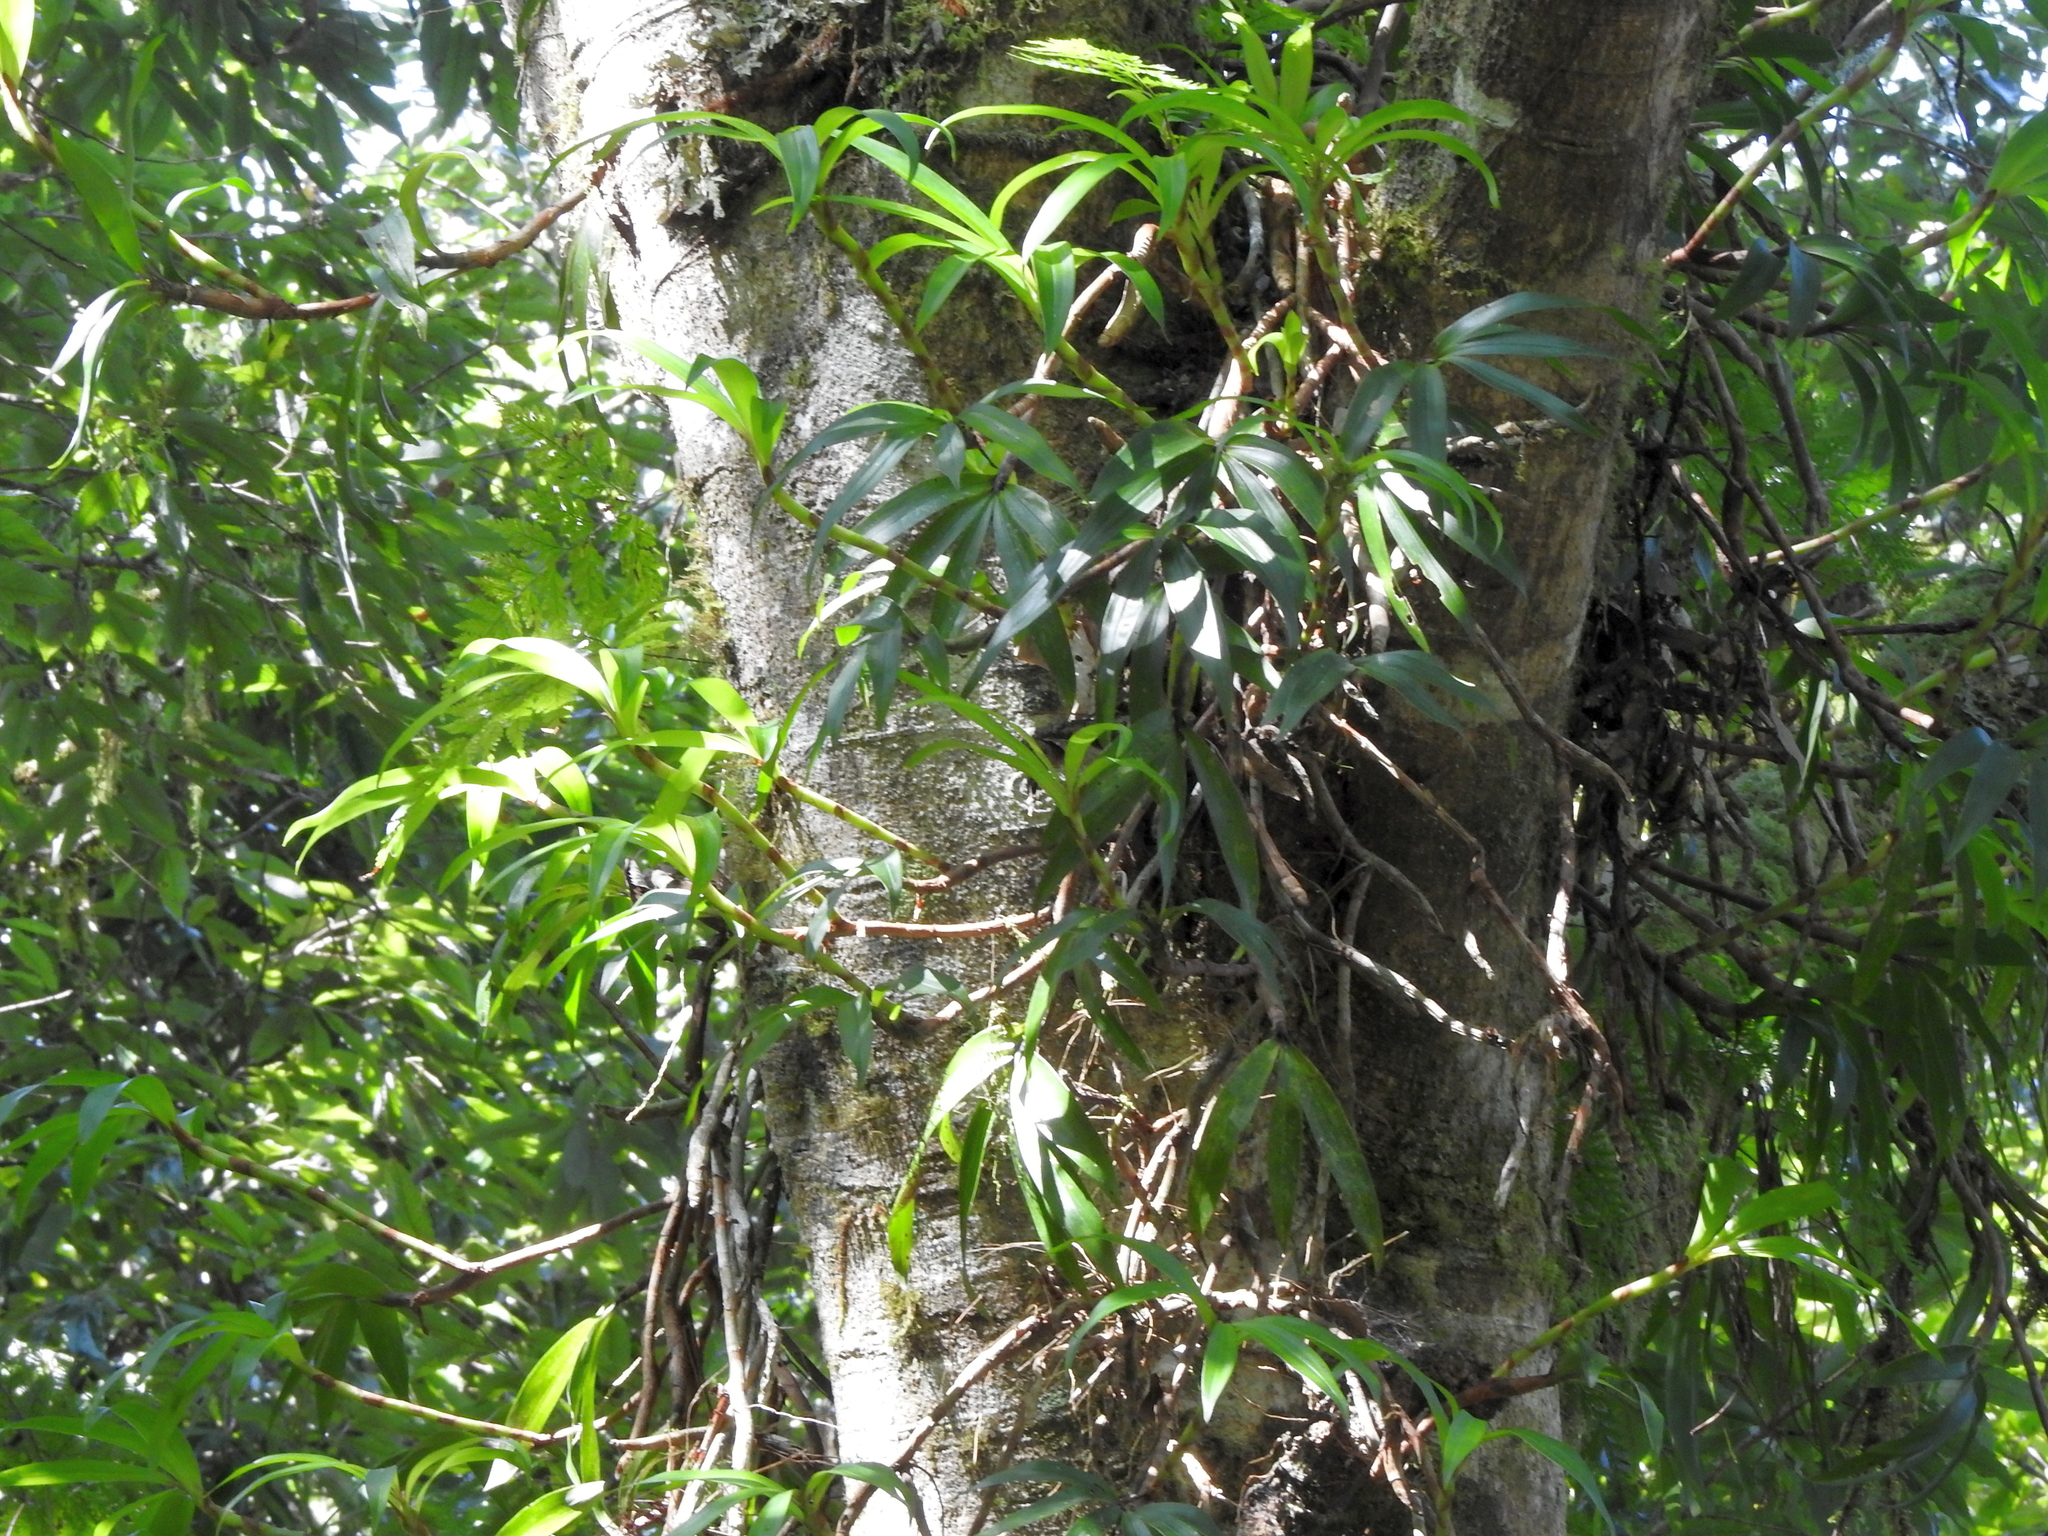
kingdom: Plantae
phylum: Tracheophyta
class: Liliopsida
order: Asparagales
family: Orchidaceae
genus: Pinalia
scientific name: Pinalia formosana
